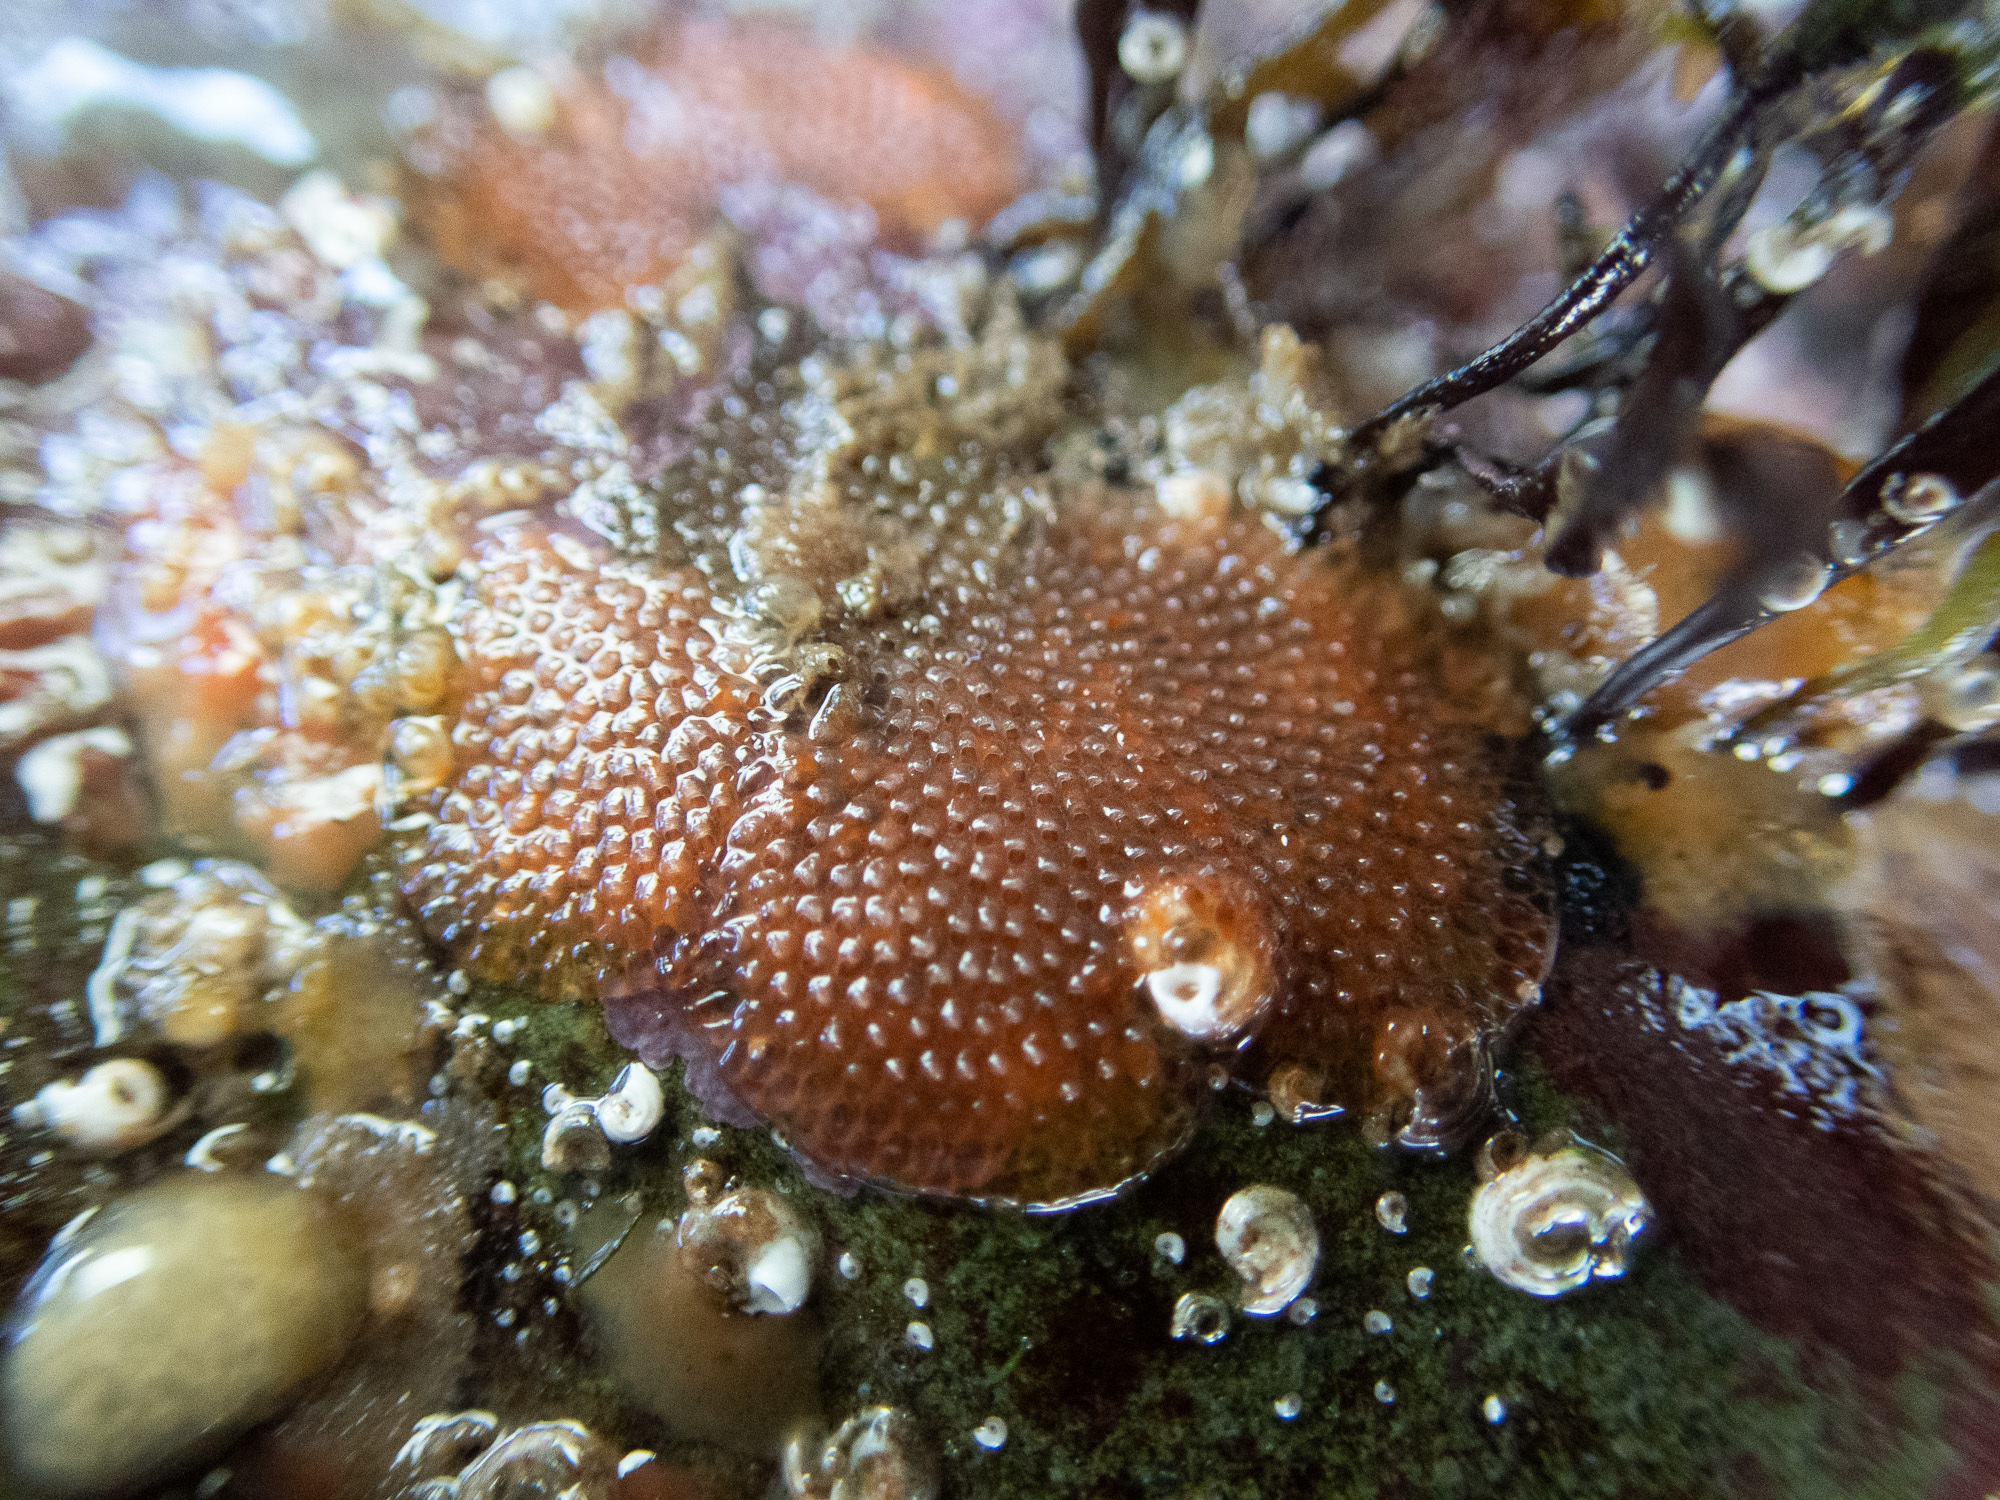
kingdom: Animalia
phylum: Bryozoa
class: Gymnolaemata
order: Cheilostomatida
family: Umbonulidae
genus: Oshurkovia
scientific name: Oshurkovia littoralis
